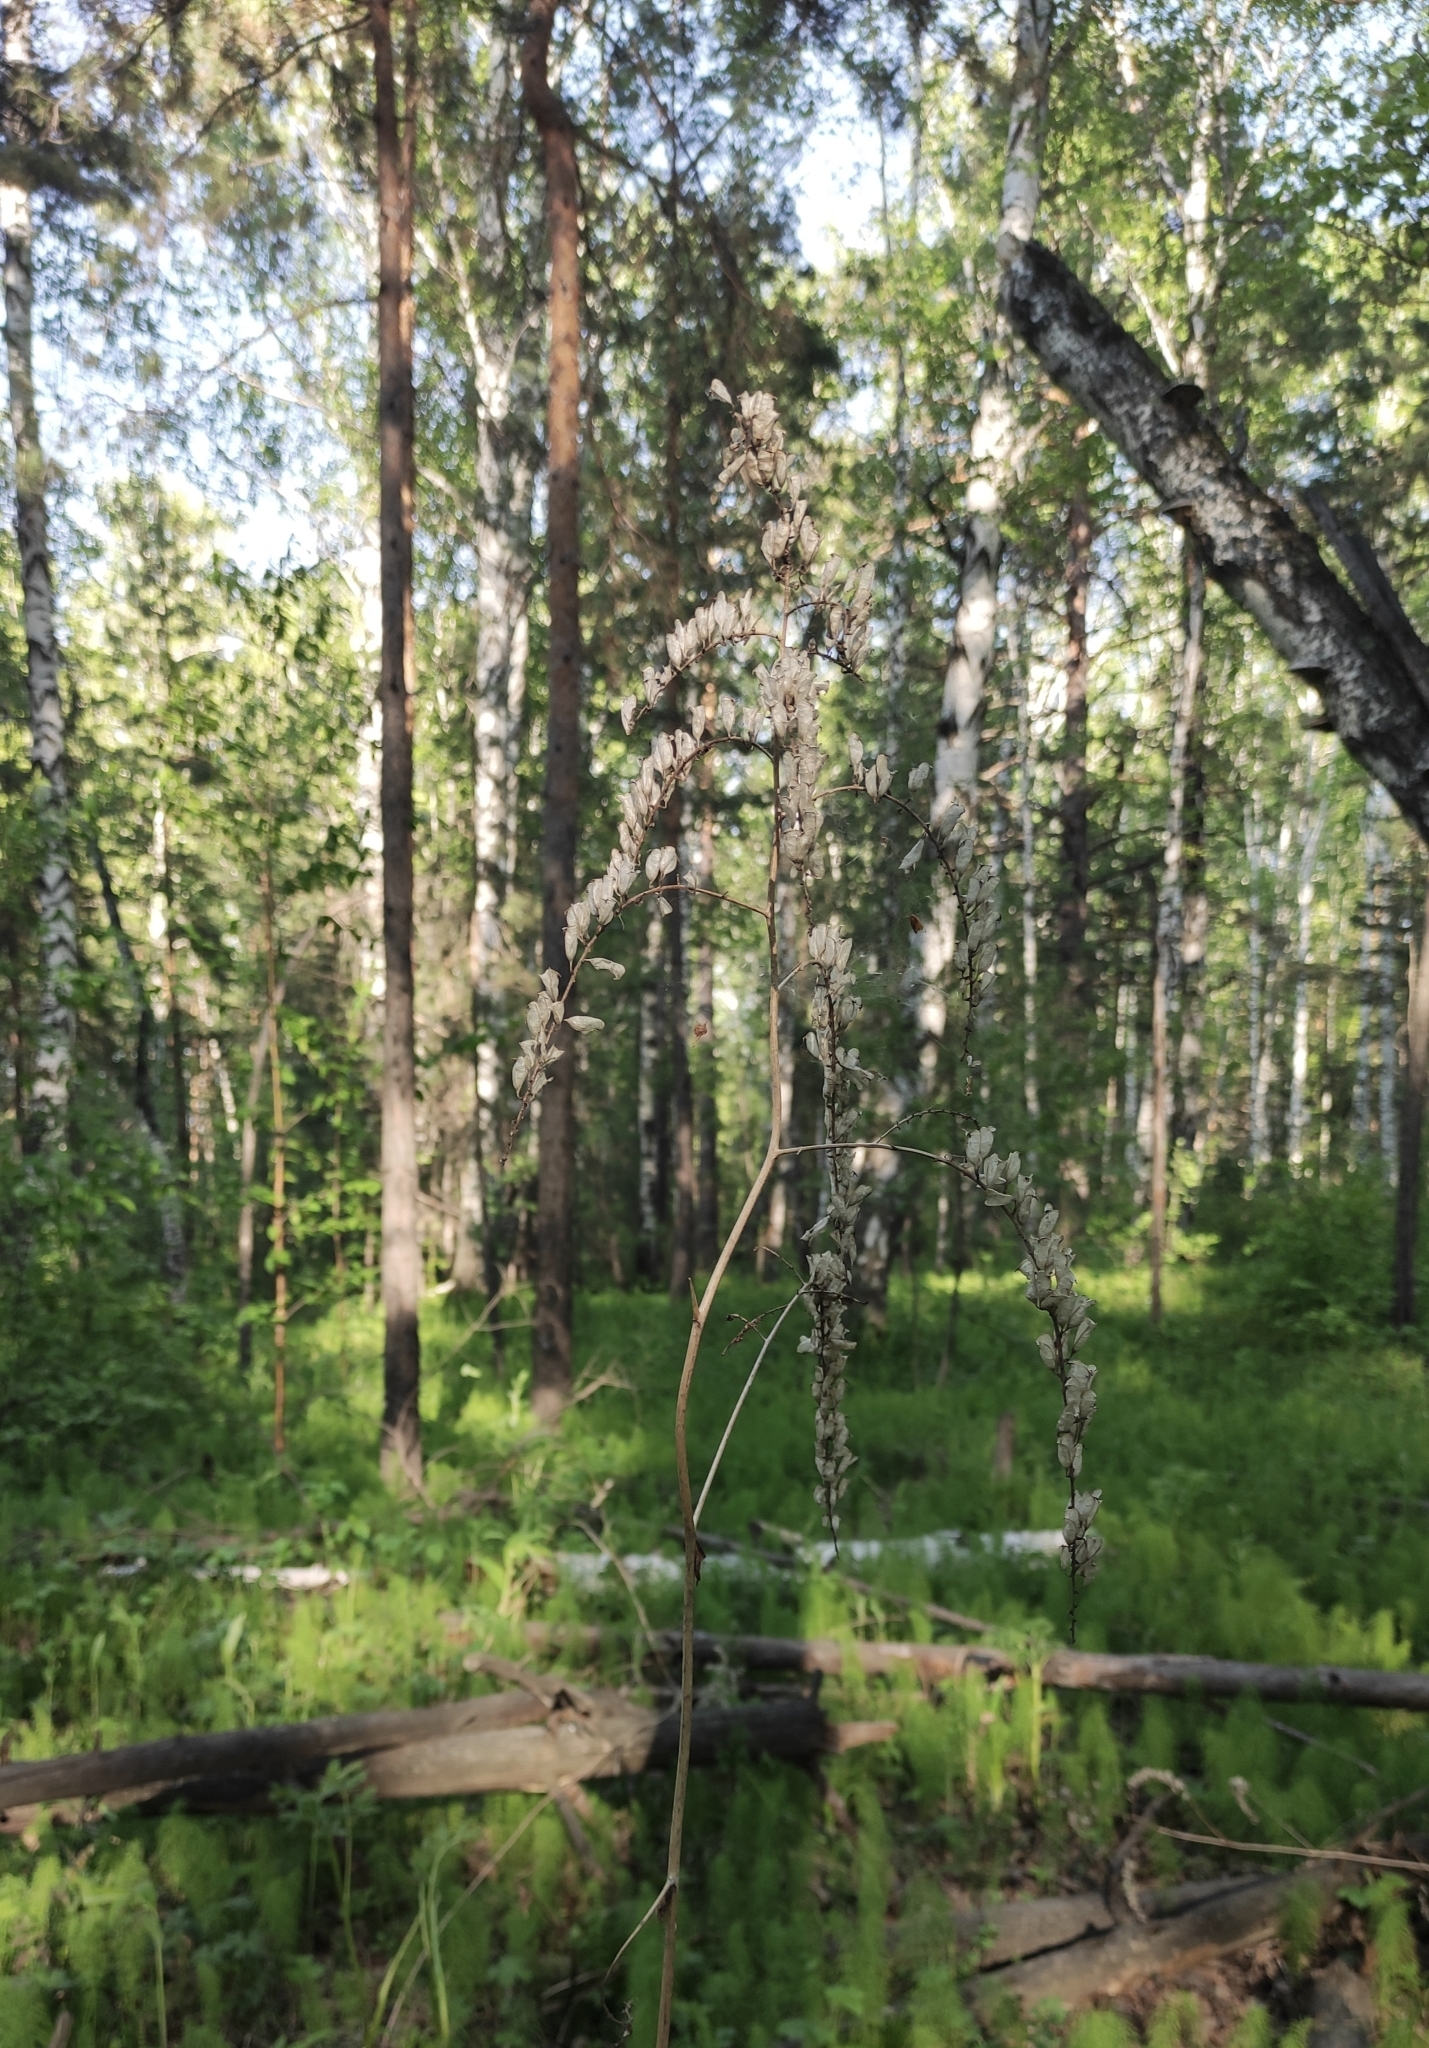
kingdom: Plantae
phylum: Tracheophyta
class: Magnoliopsida
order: Ranunculales
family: Ranunculaceae
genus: Actaea
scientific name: Actaea cimicifuga
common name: Chinese cimicifuga
